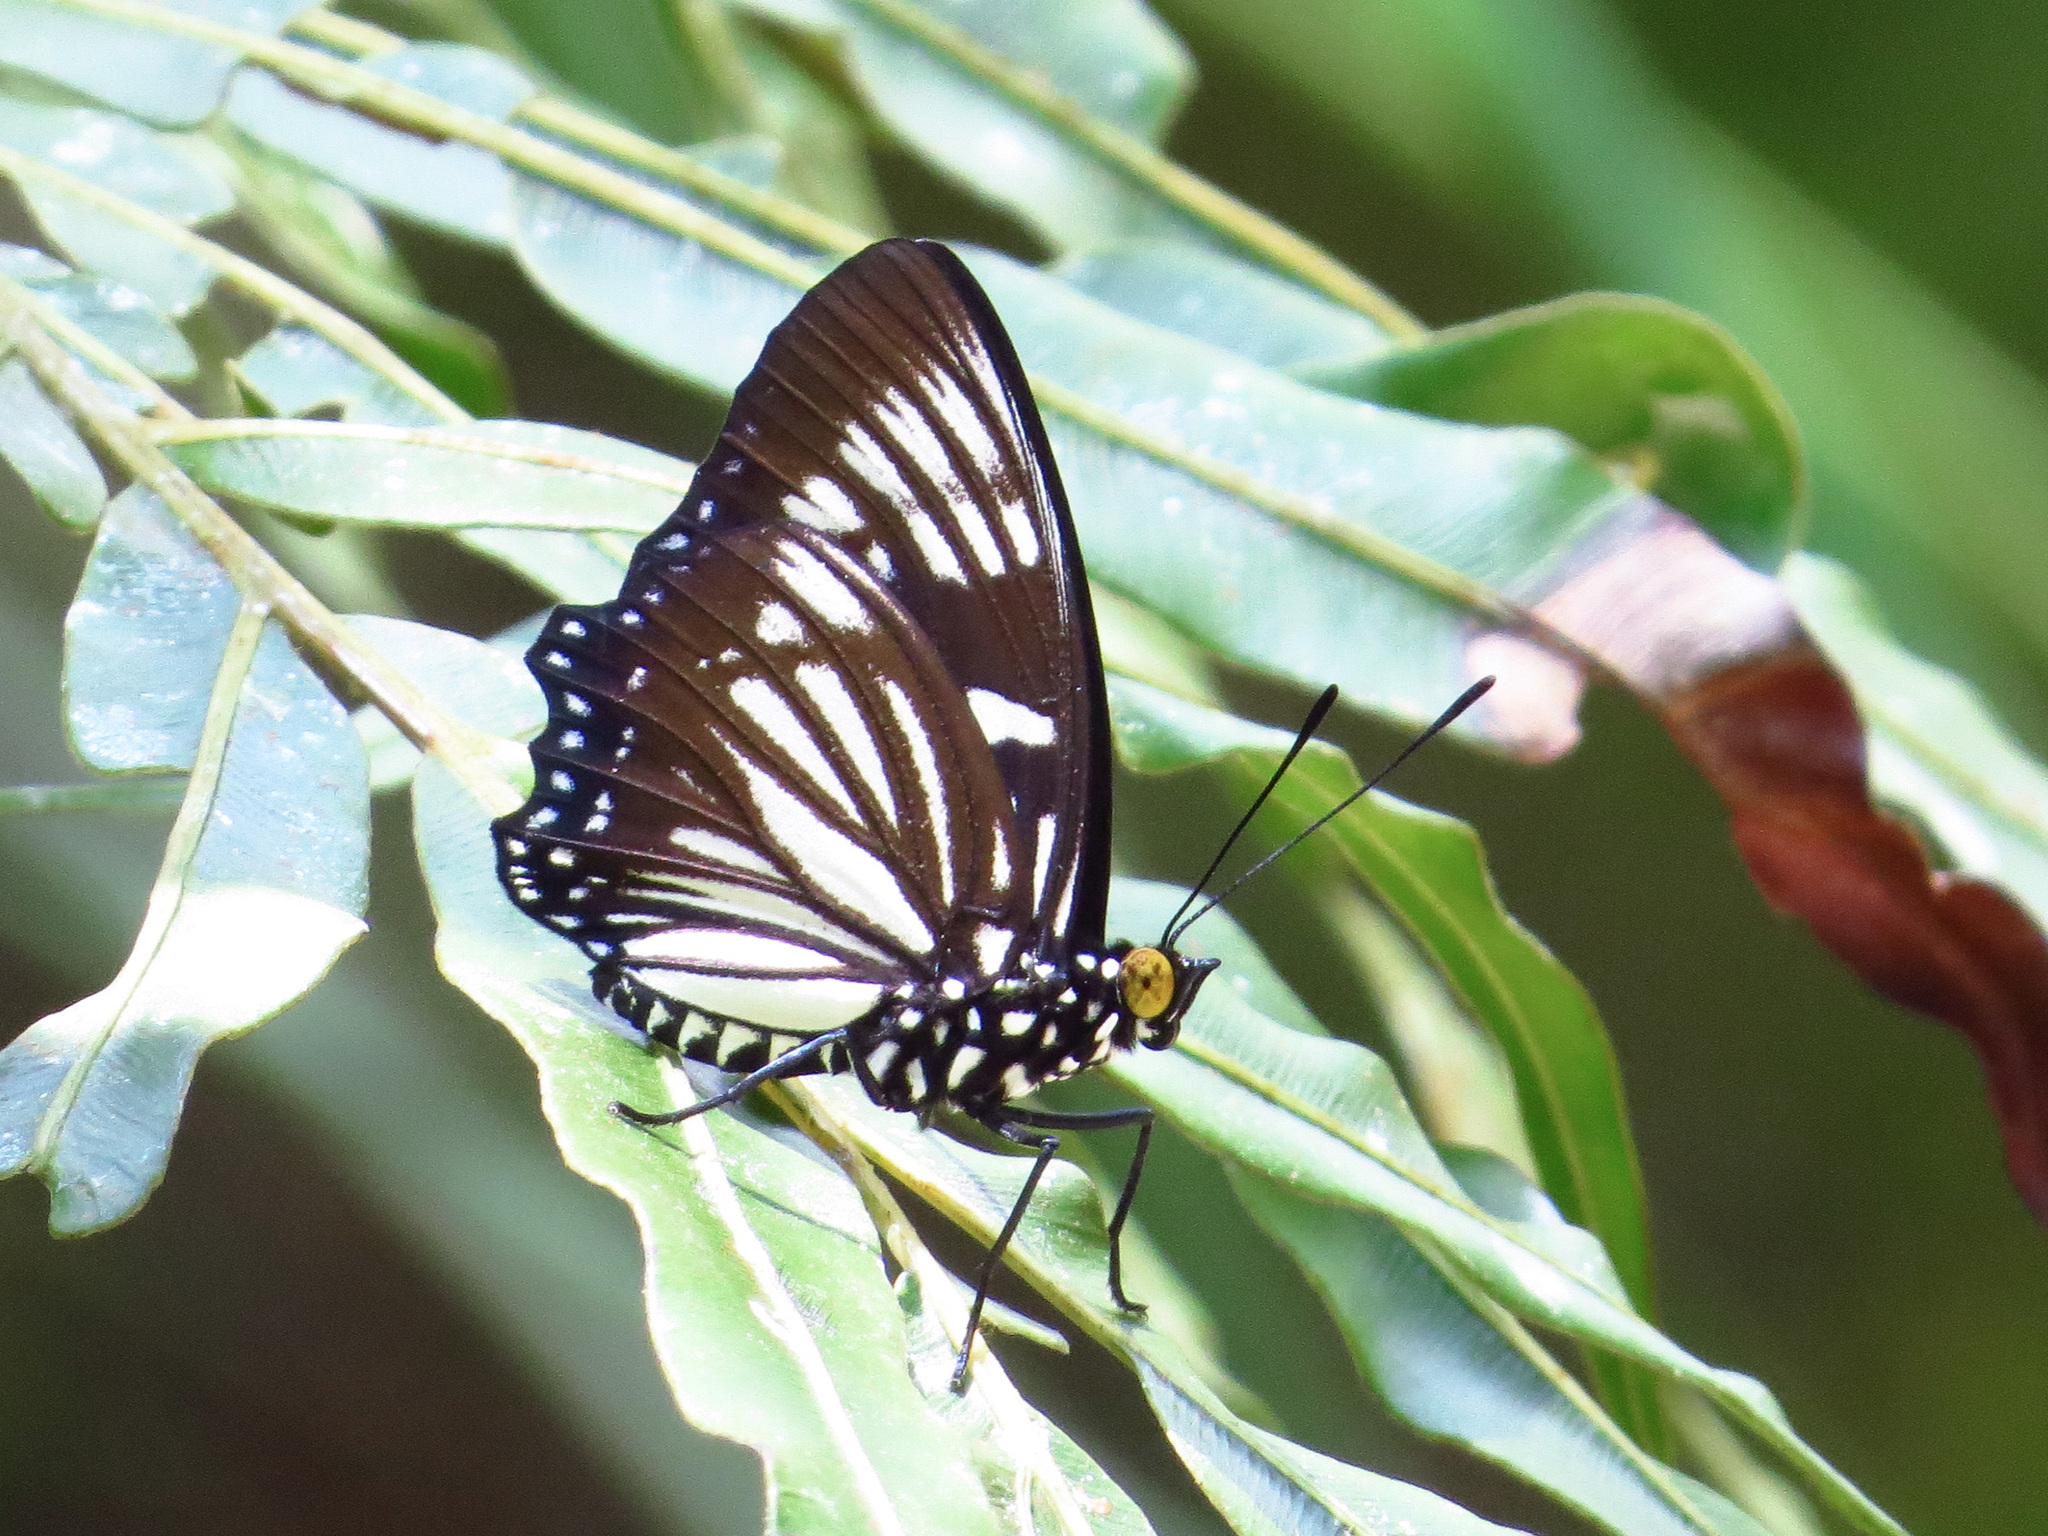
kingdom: Animalia
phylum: Arthropoda
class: Insecta
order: Lepidoptera
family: Nymphalidae
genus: Euripus
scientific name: Euripus nyctelius
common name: Courtesan
